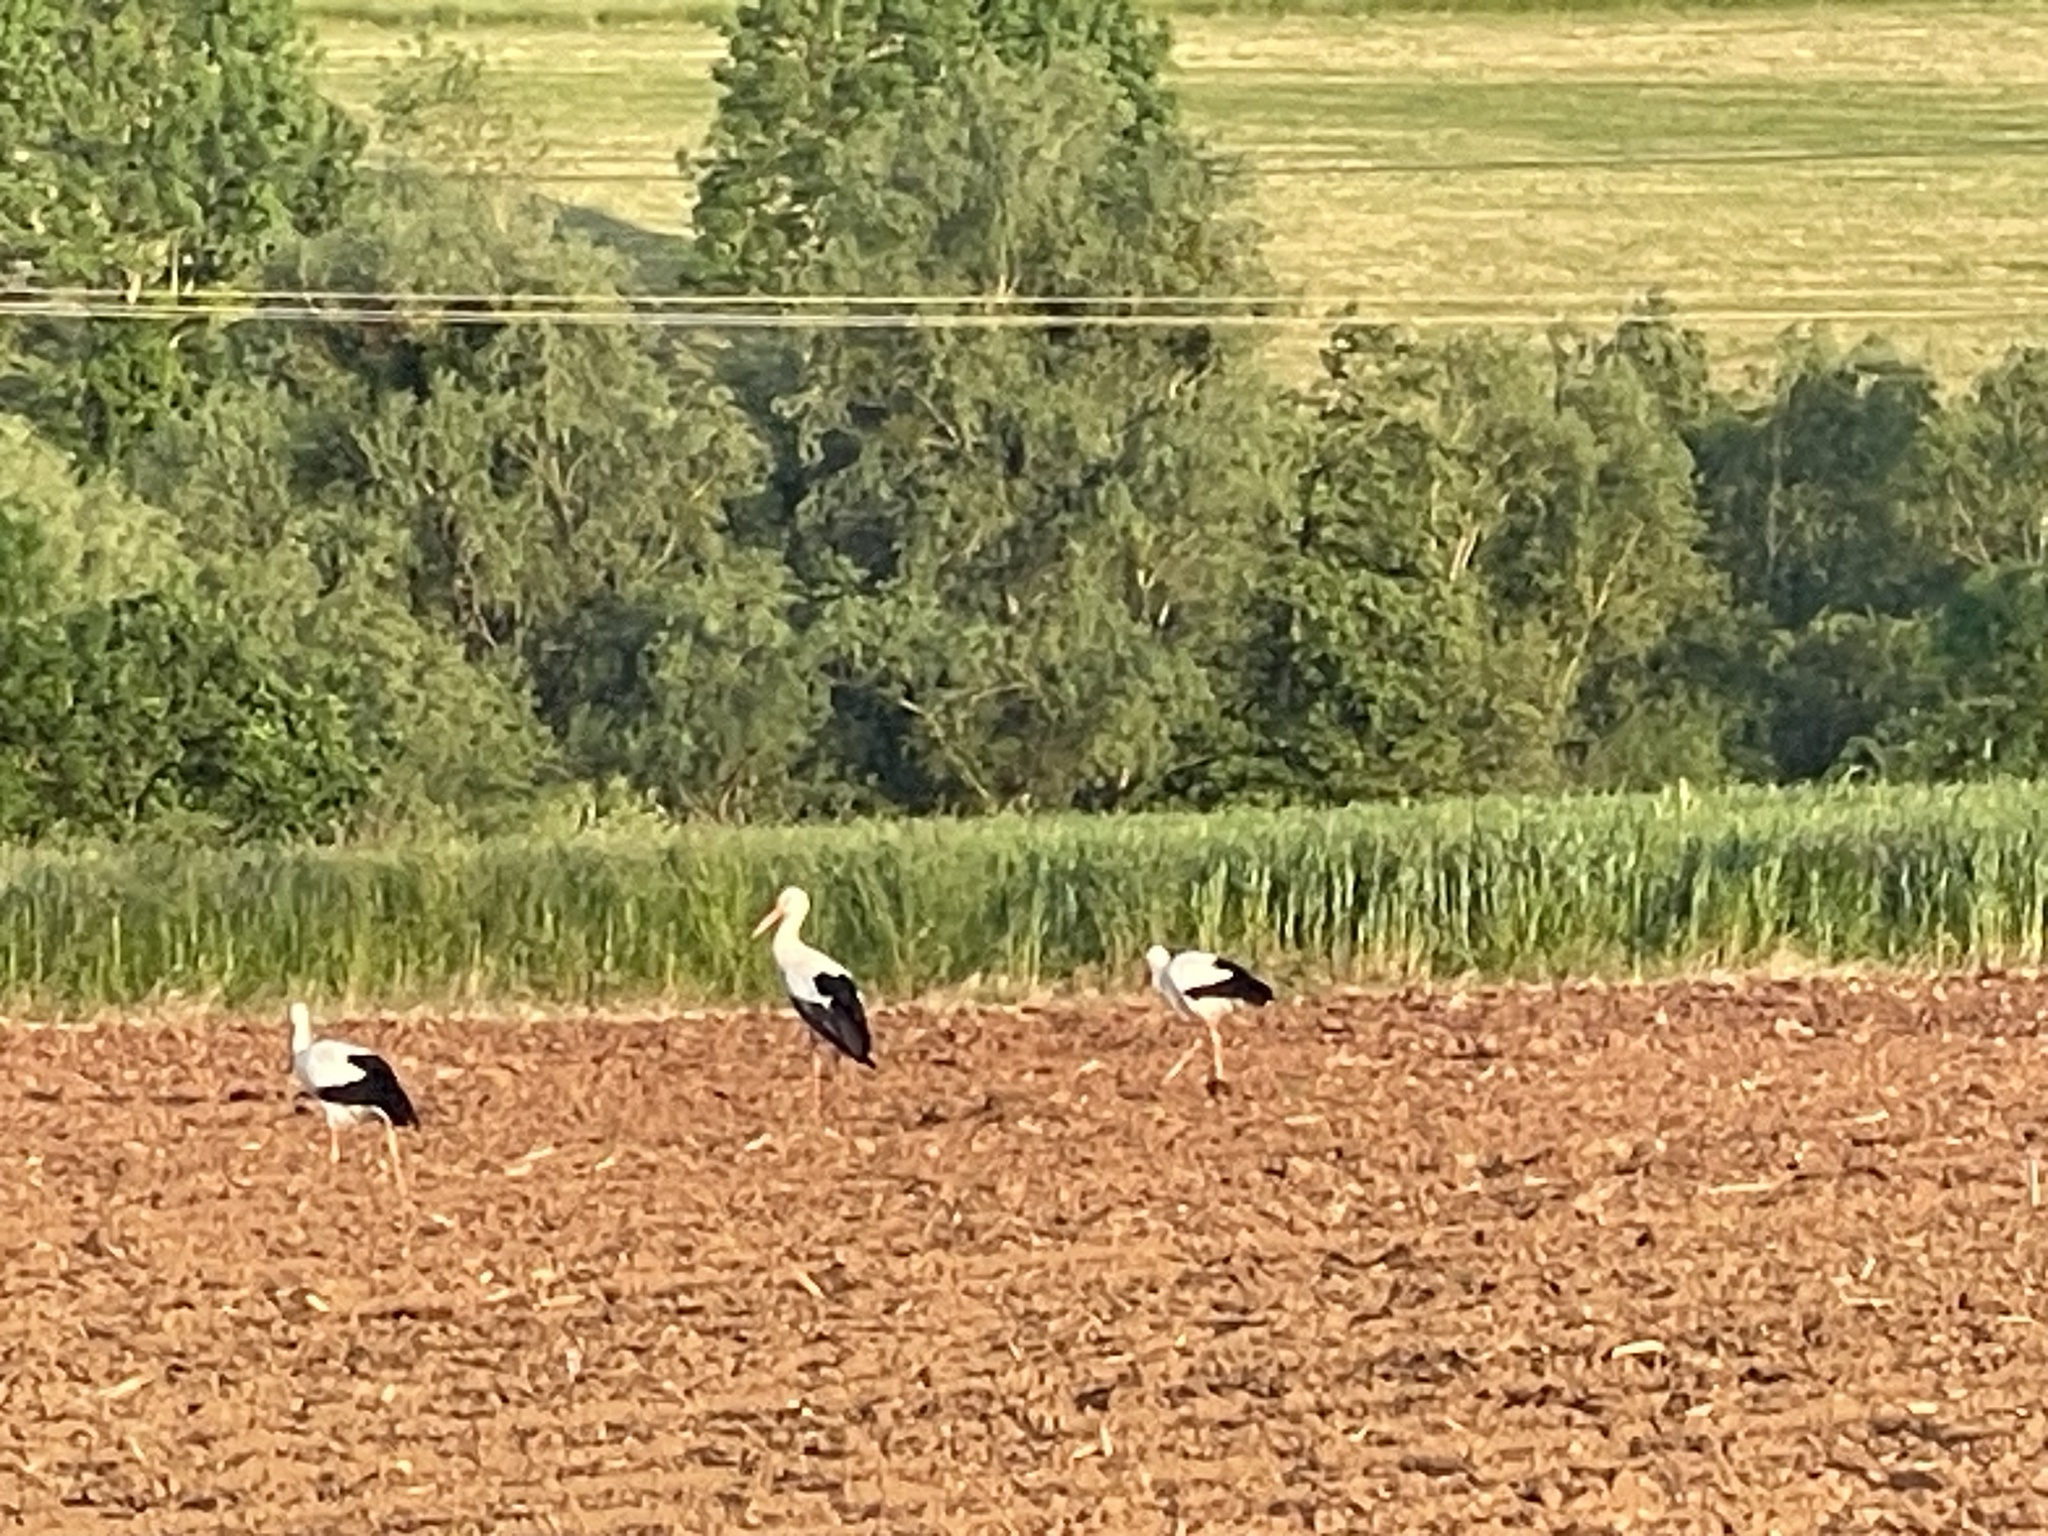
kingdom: Animalia
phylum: Chordata
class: Aves
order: Ciconiiformes
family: Ciconiidae
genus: Ciconia
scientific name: Ciconia ciconia
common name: White stork
